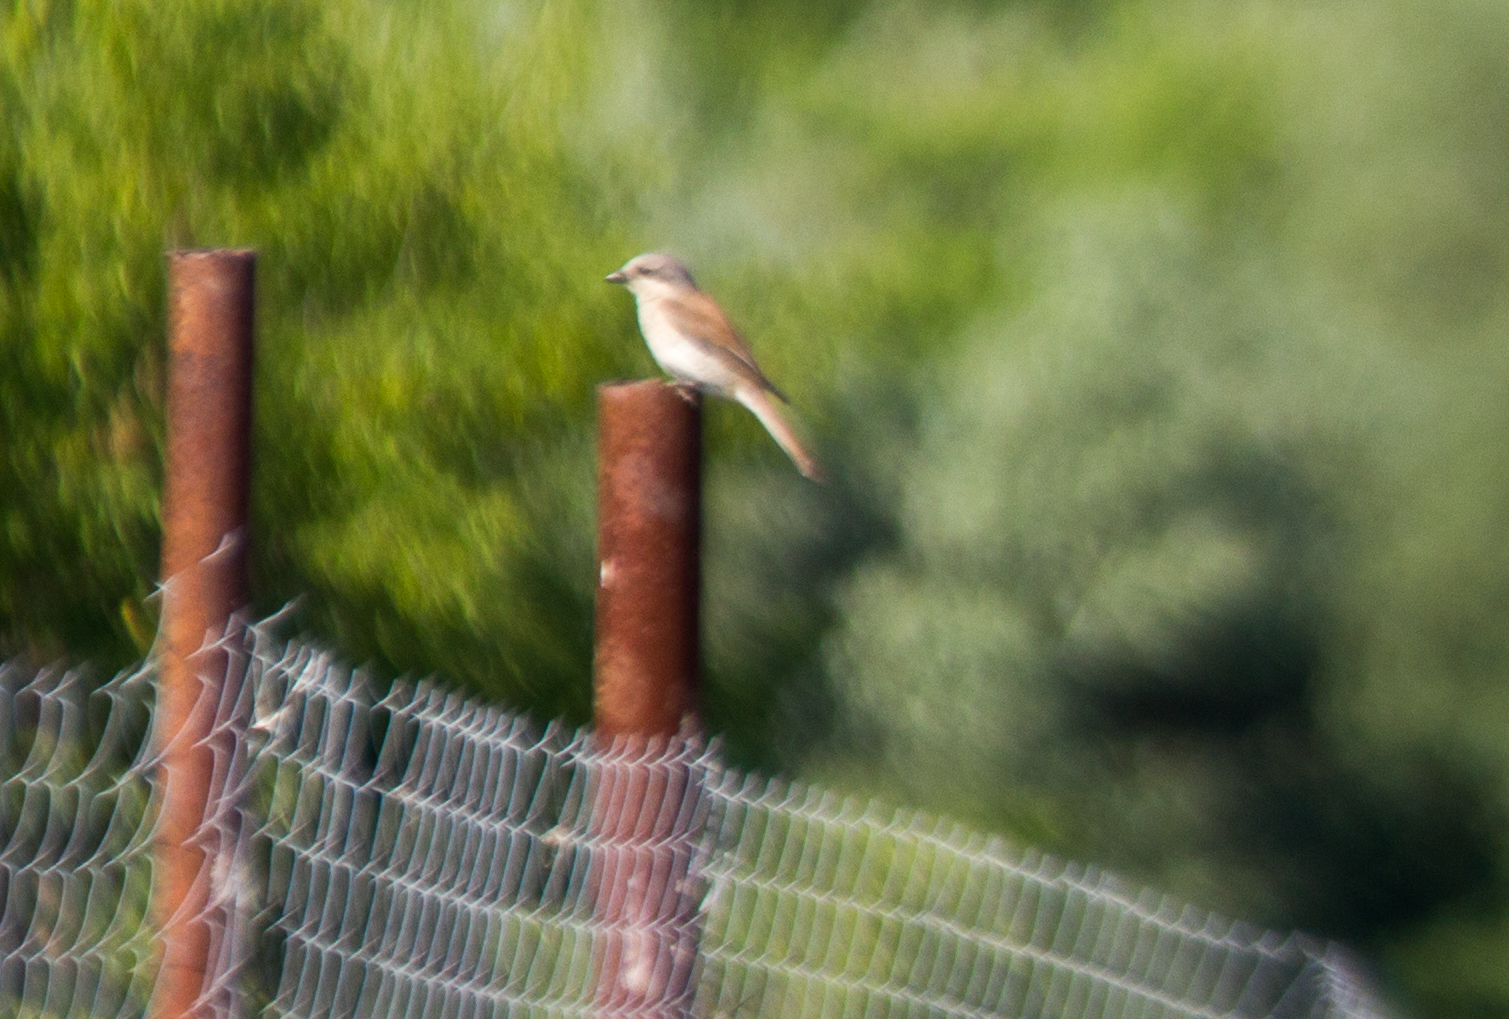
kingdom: Animalia
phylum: Chordata
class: Aves
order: Passeriformes
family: Laniidae
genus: Lanius
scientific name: Lanius collurio
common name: Red-backed shrike
